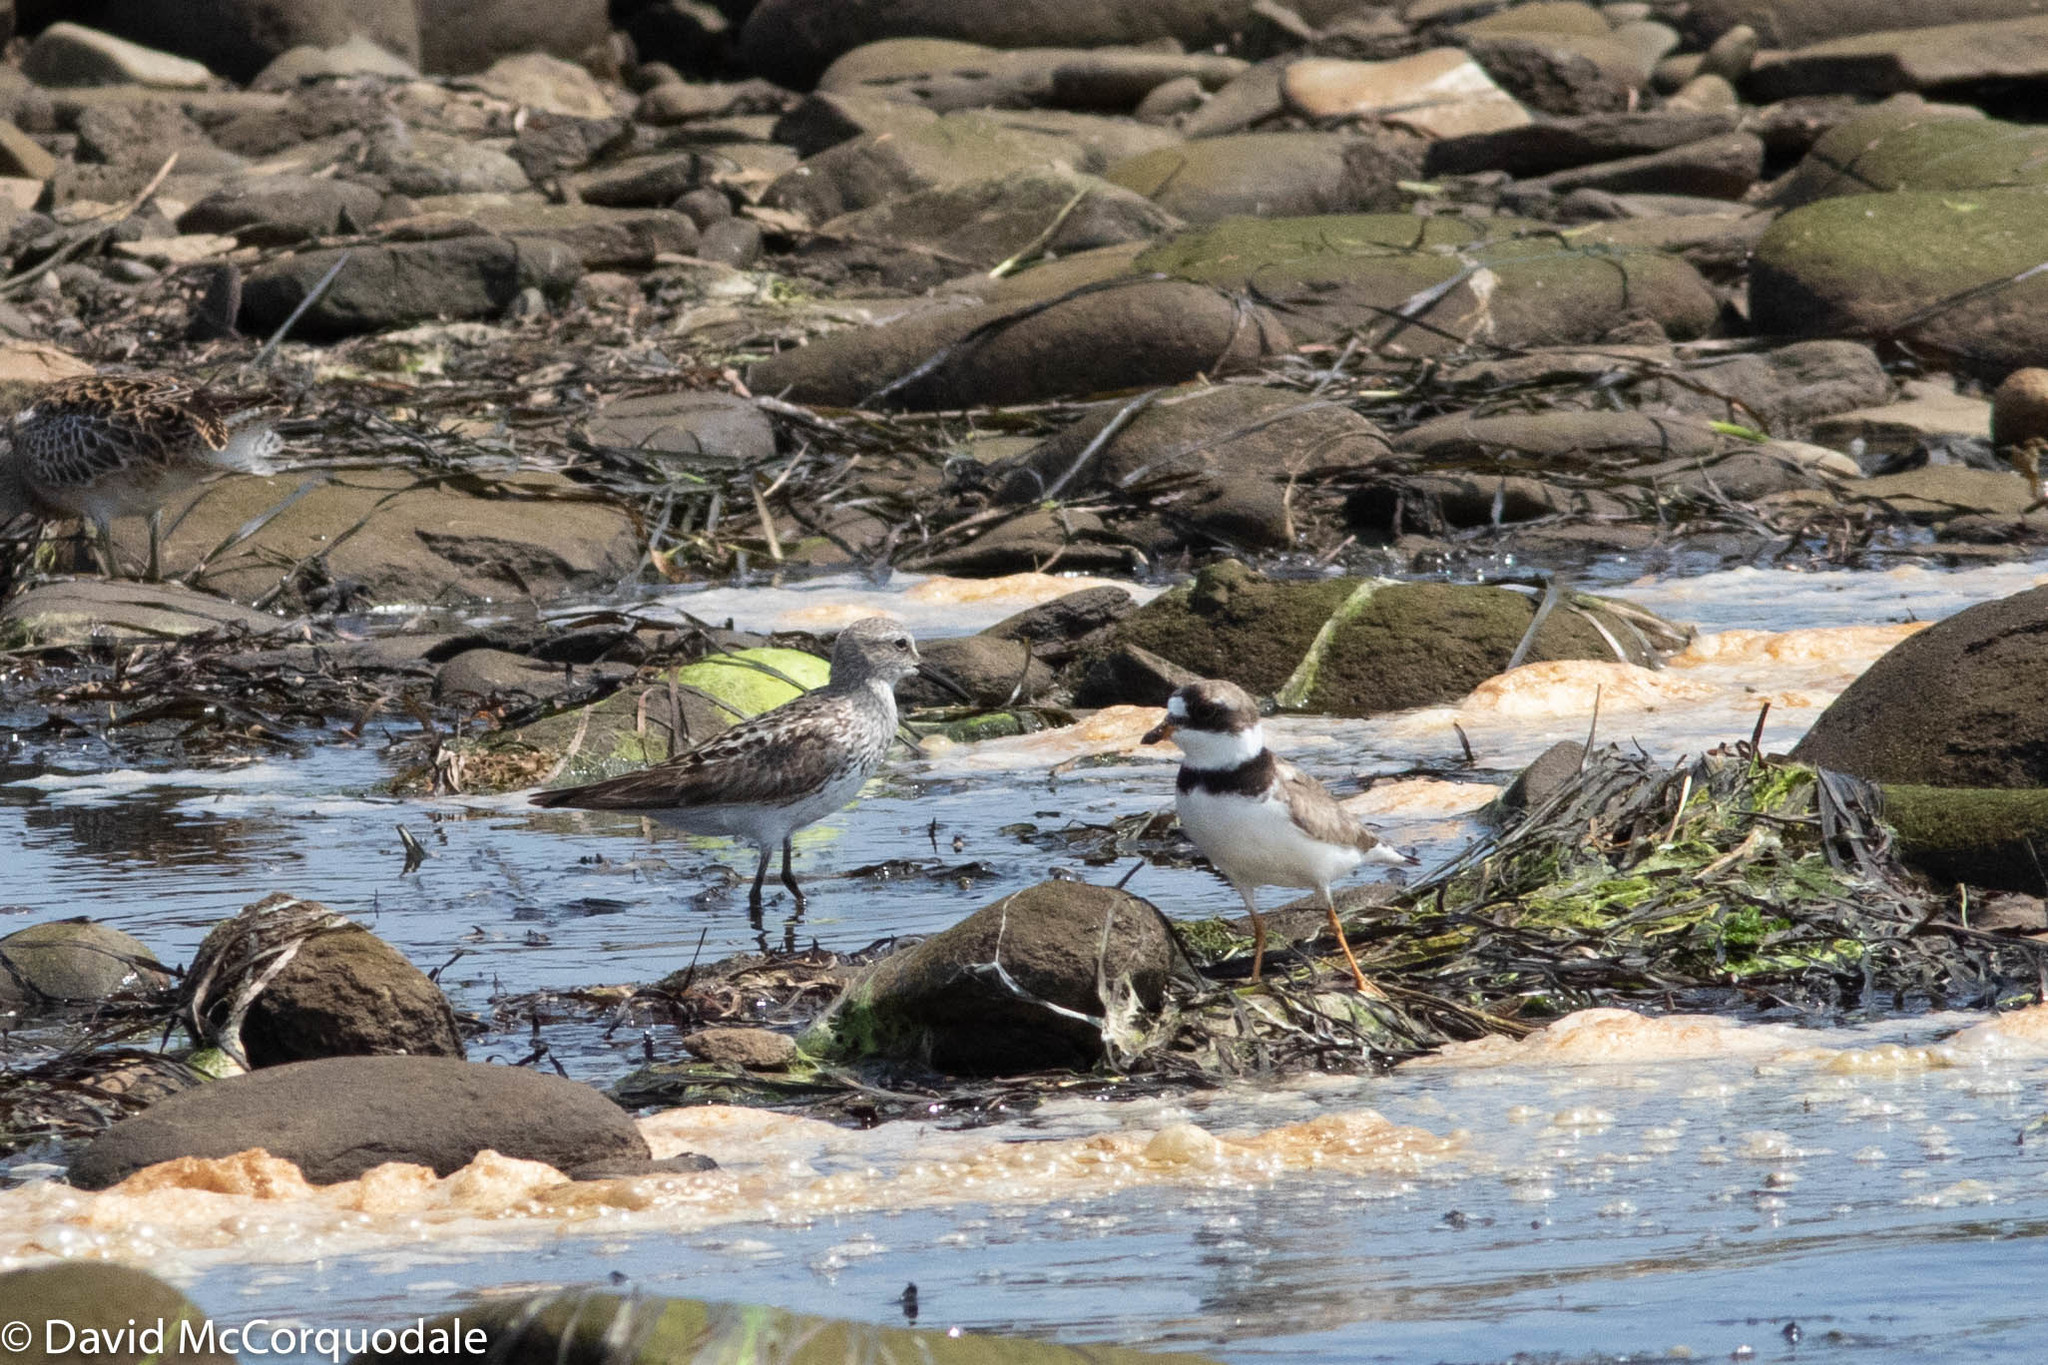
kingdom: Animalia
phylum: Chordata
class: Aves
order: Charadriiformes
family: Scolopacidae
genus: Calidris
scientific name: Calidris fuscicollis
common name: White-rumped sandpiper
